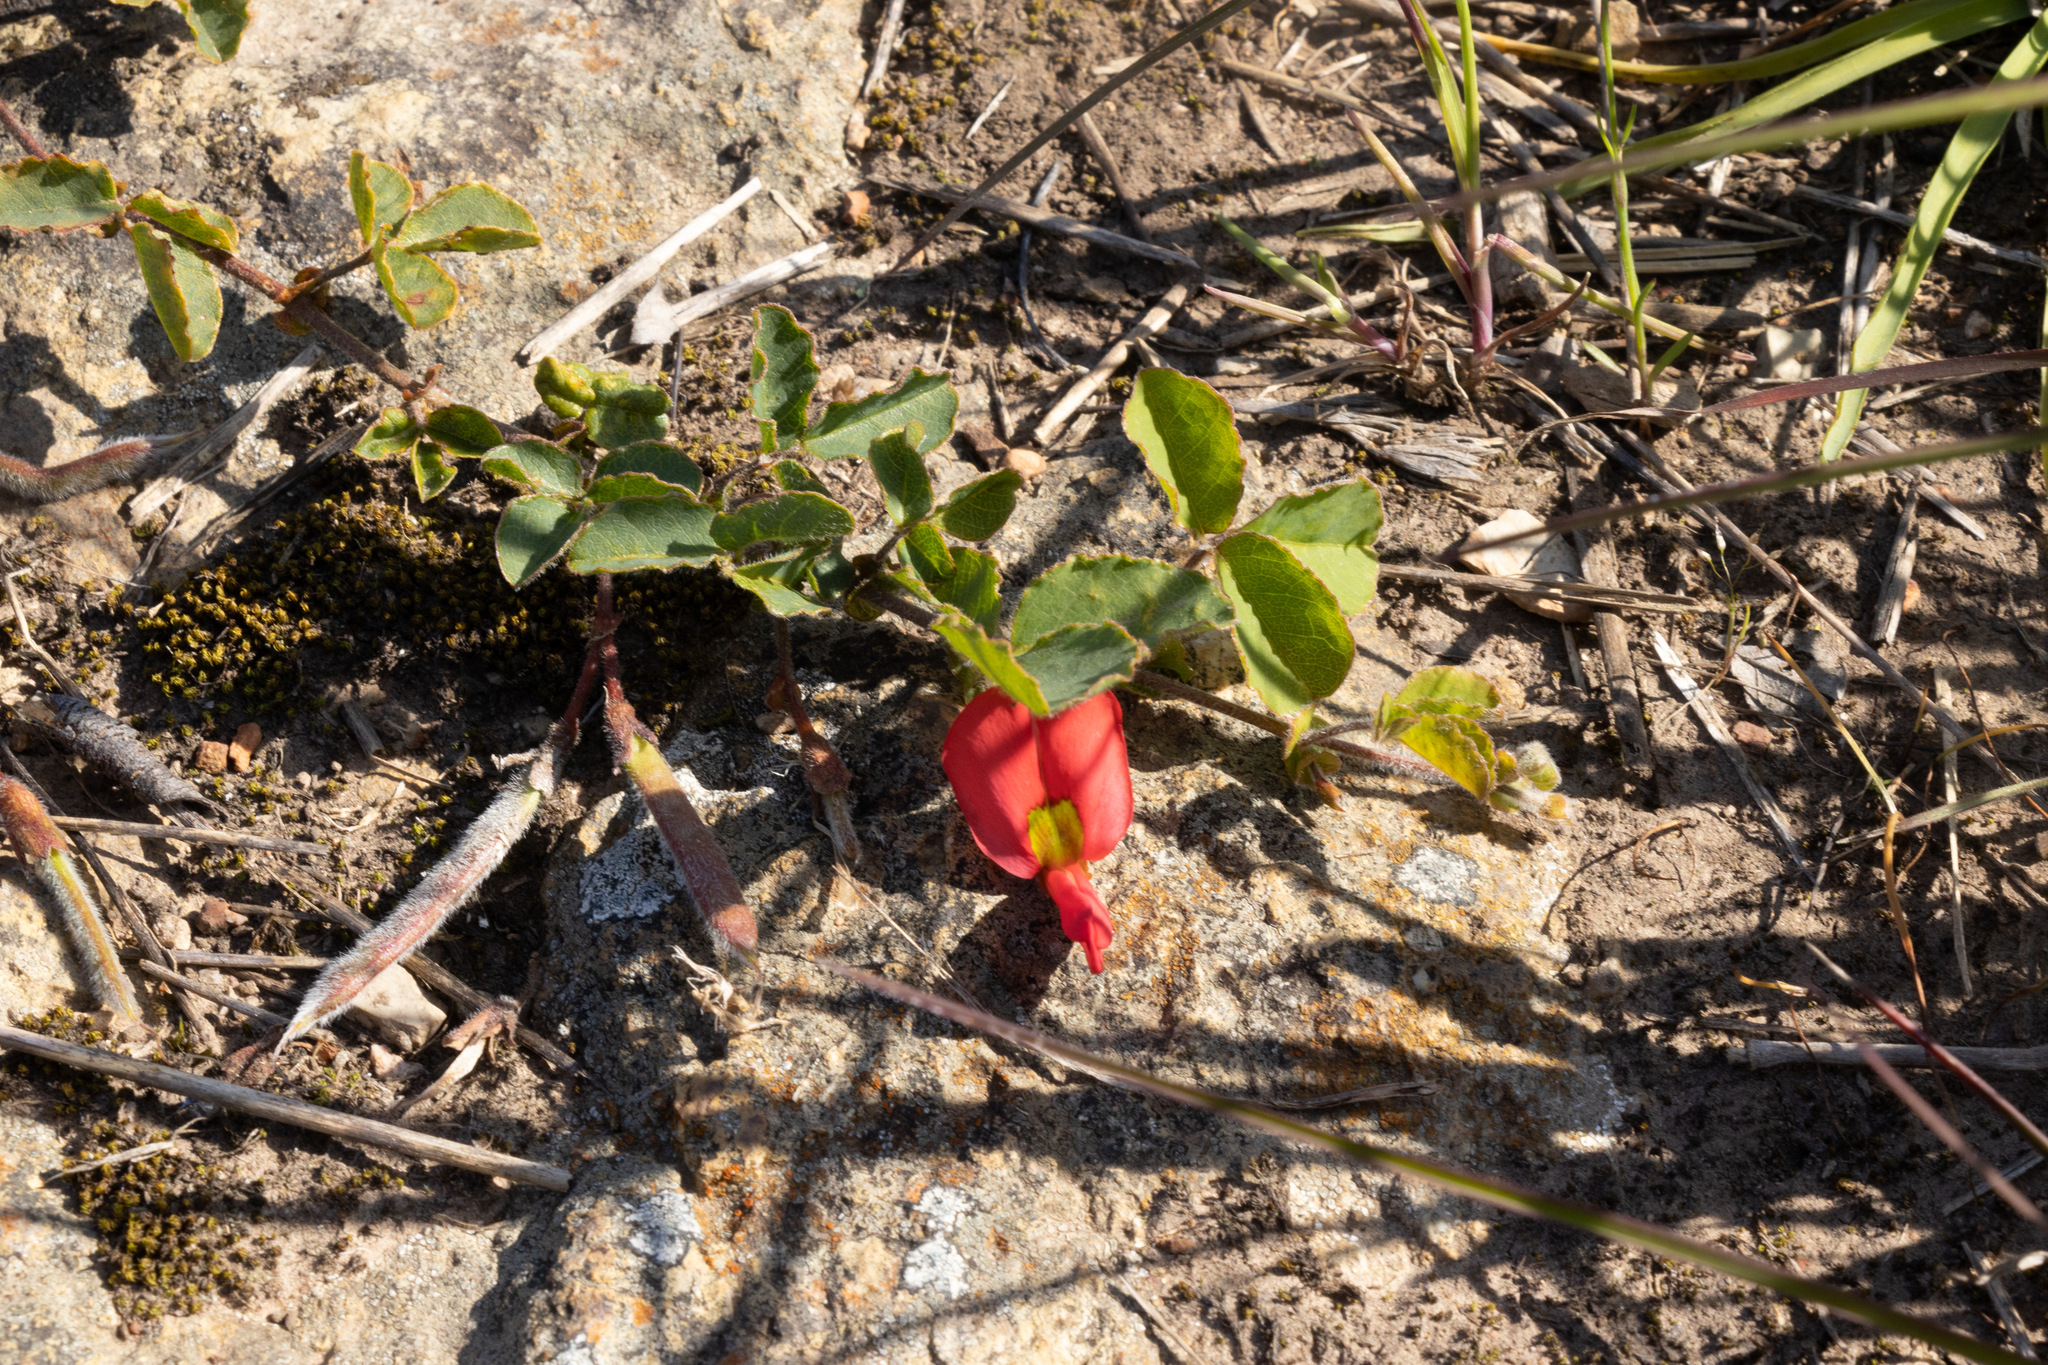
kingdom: Plantae
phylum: Tracheophyta
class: Magnoliopsida
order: Fabales
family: Fabaceae
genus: Kennedia
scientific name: Kennedia prostrata
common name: Running-postman
